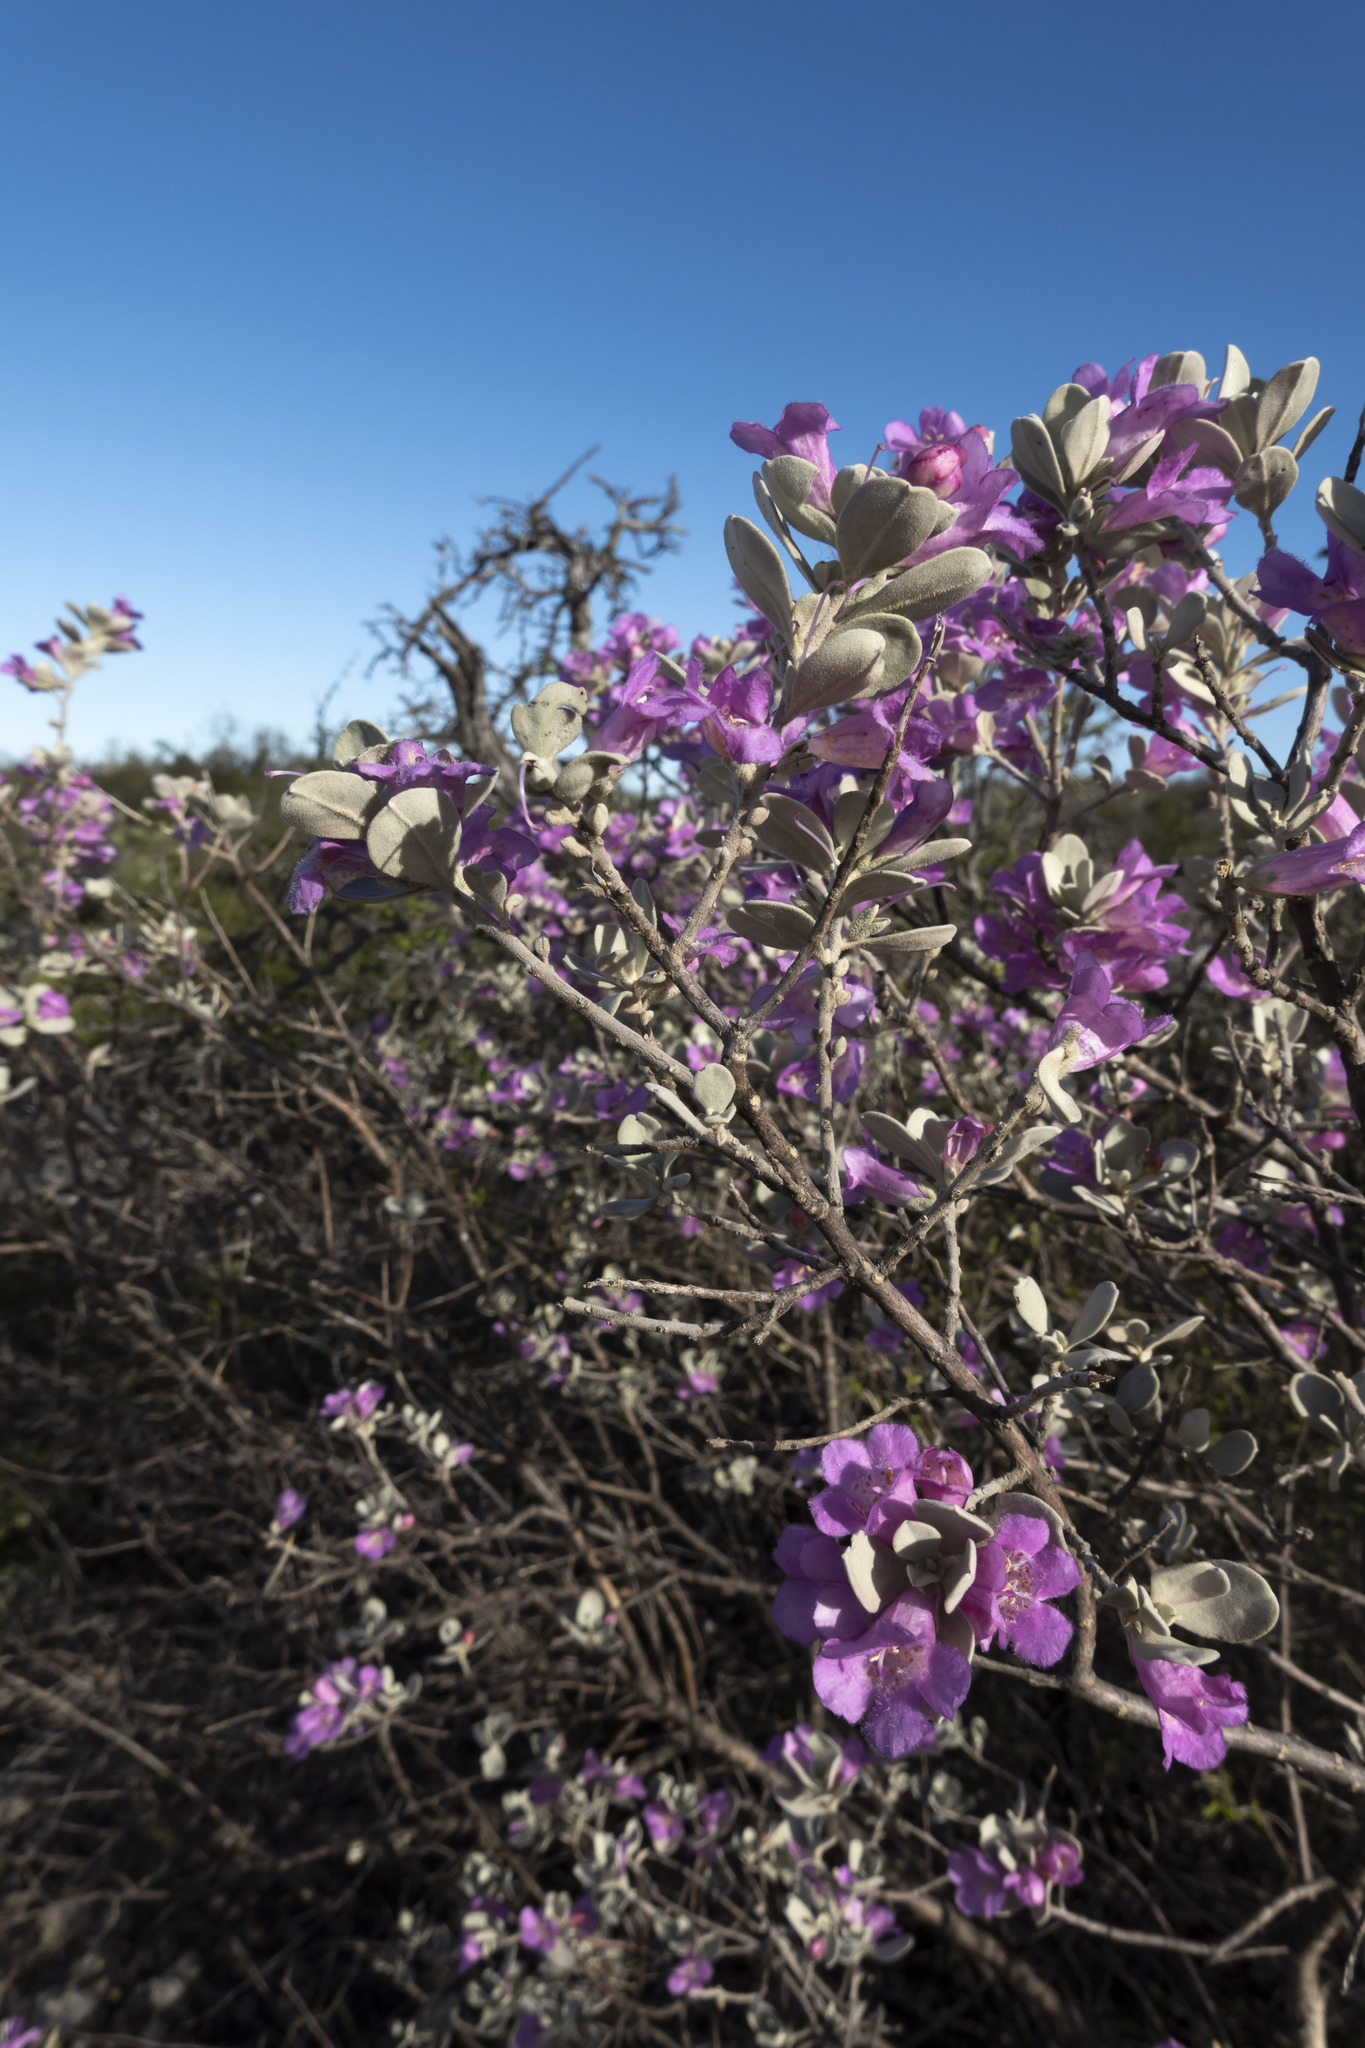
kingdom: Plantae
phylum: Tracheophyta
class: Magnoliopsida
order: Lamiales
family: Scrophulariaceae
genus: Leucophyllum
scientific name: Leucophyllum frutescens
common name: Texas silverleaf
